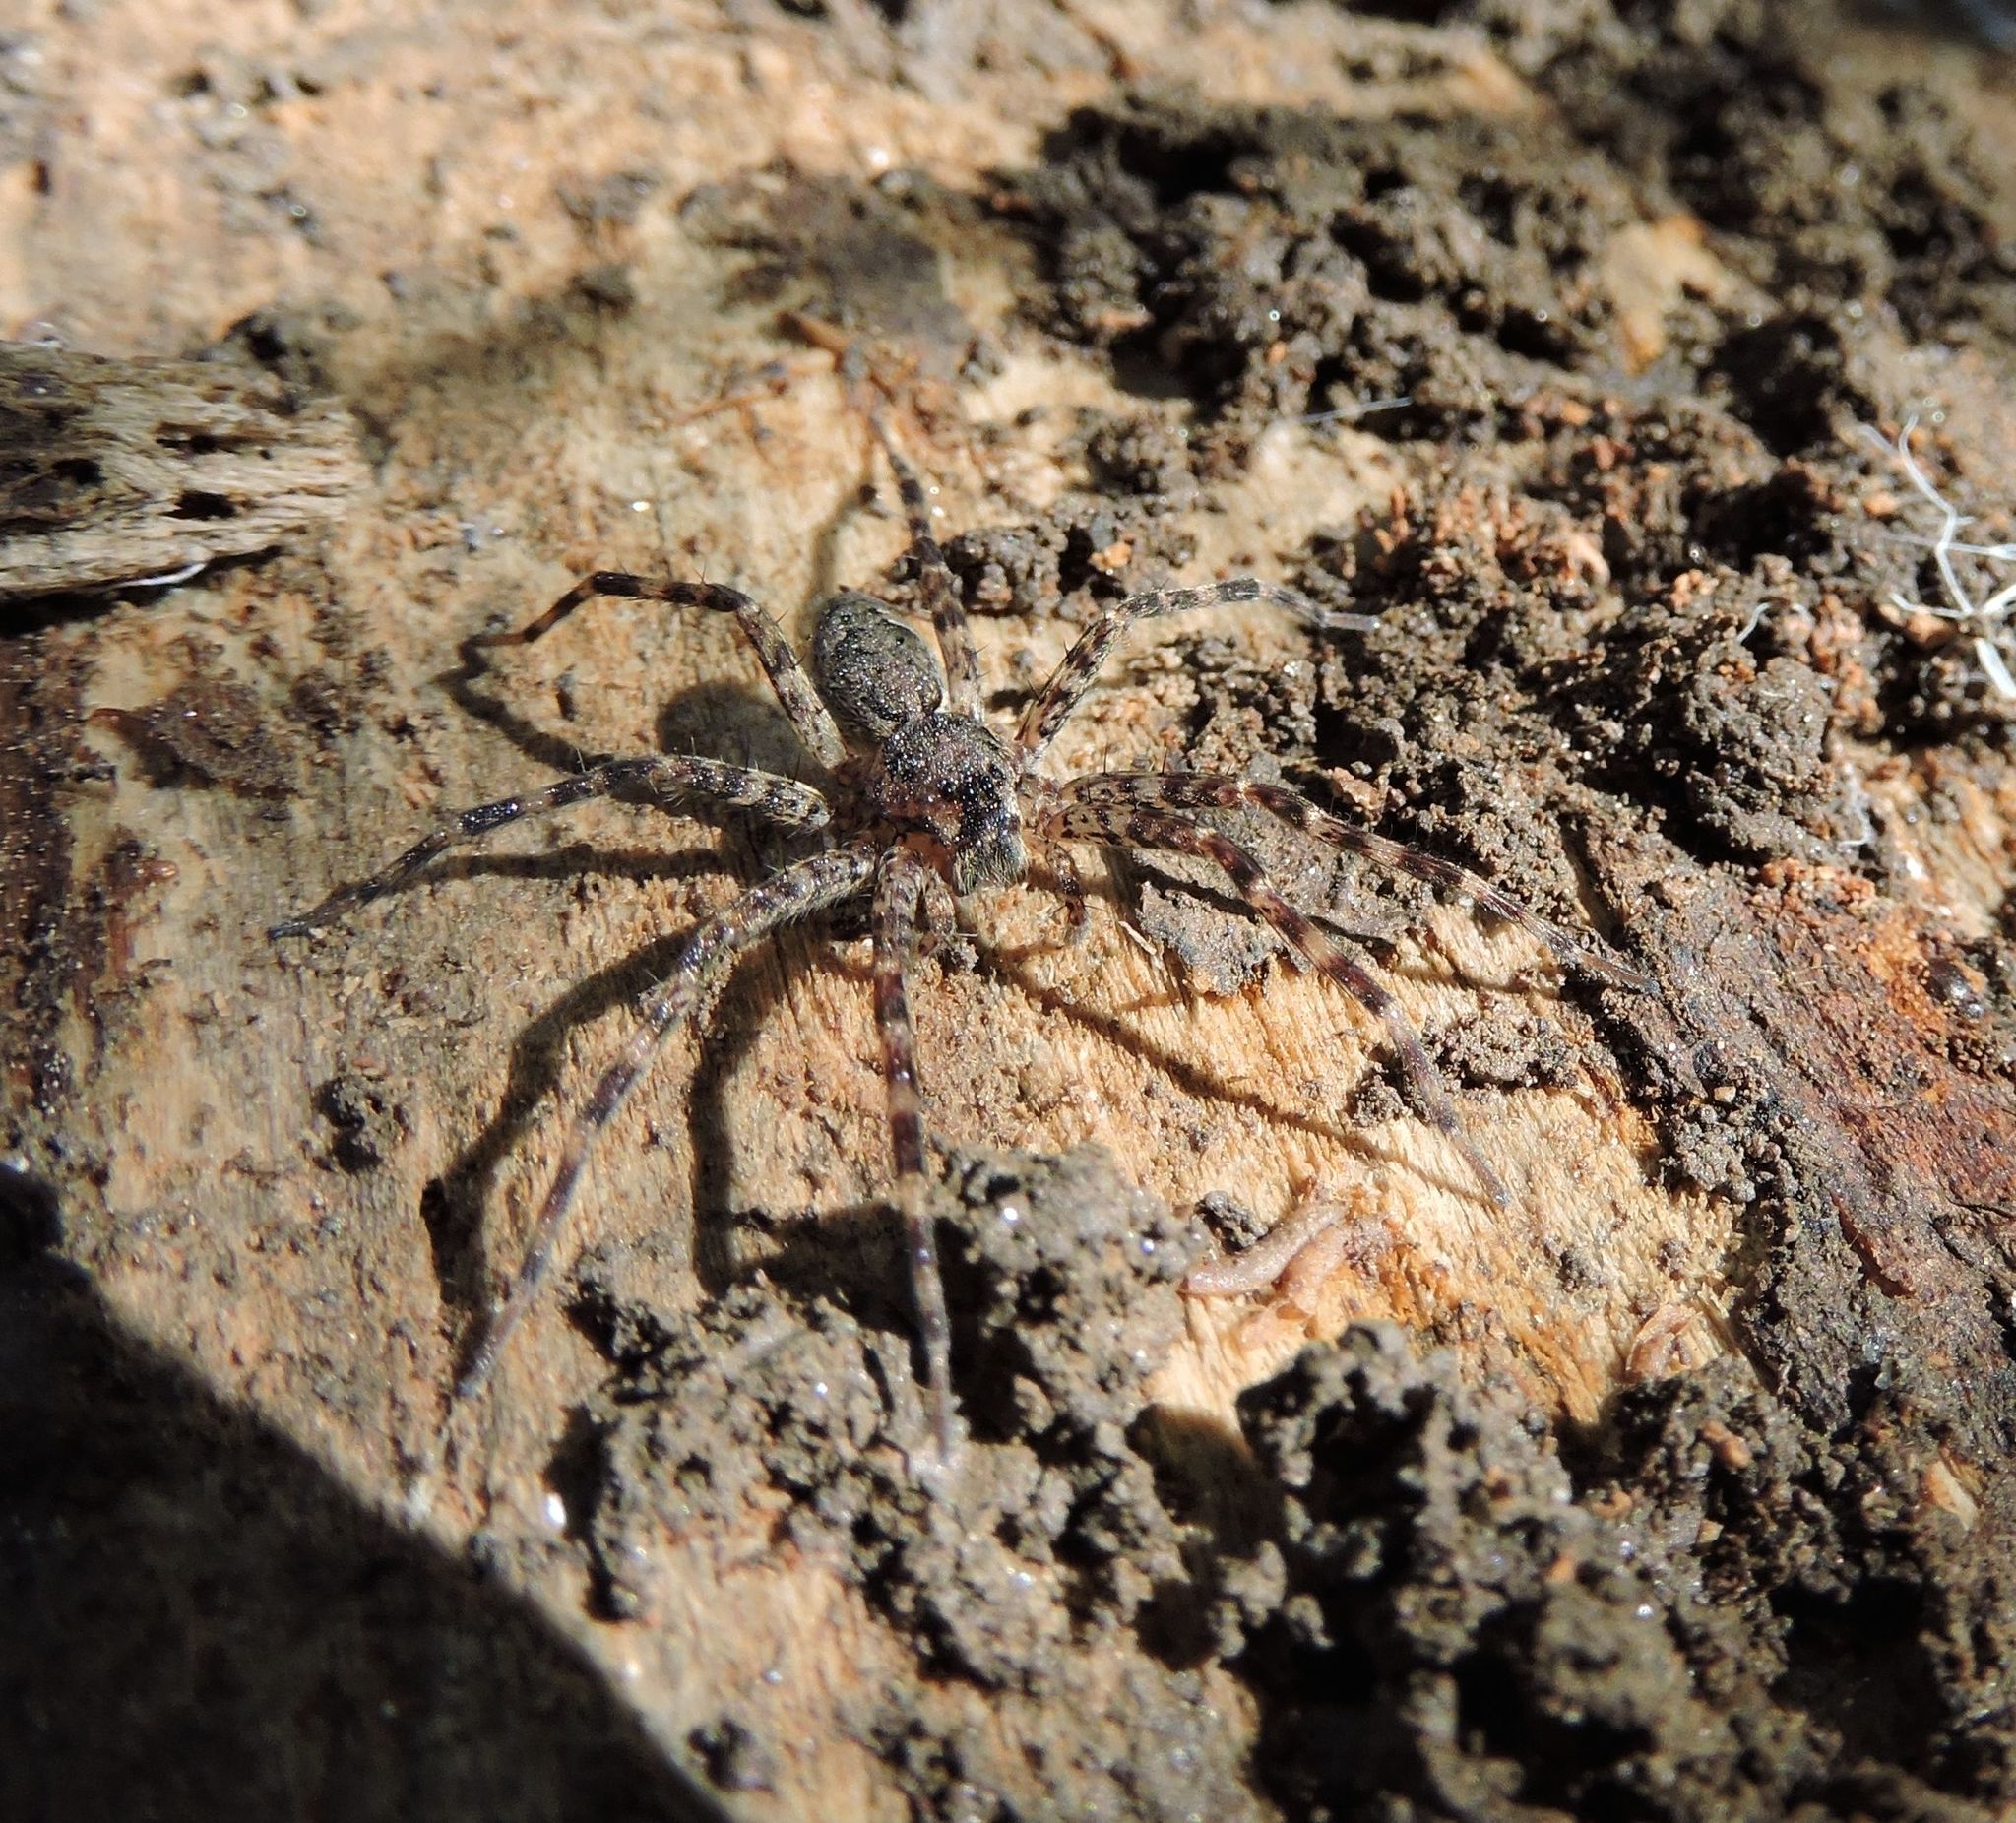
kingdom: Animalia
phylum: Arthropoda
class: Arachnida
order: Araneae
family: Pisauridae
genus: Dolomedes
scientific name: Dolomedes tenebrosus
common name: Dark fishing spider
